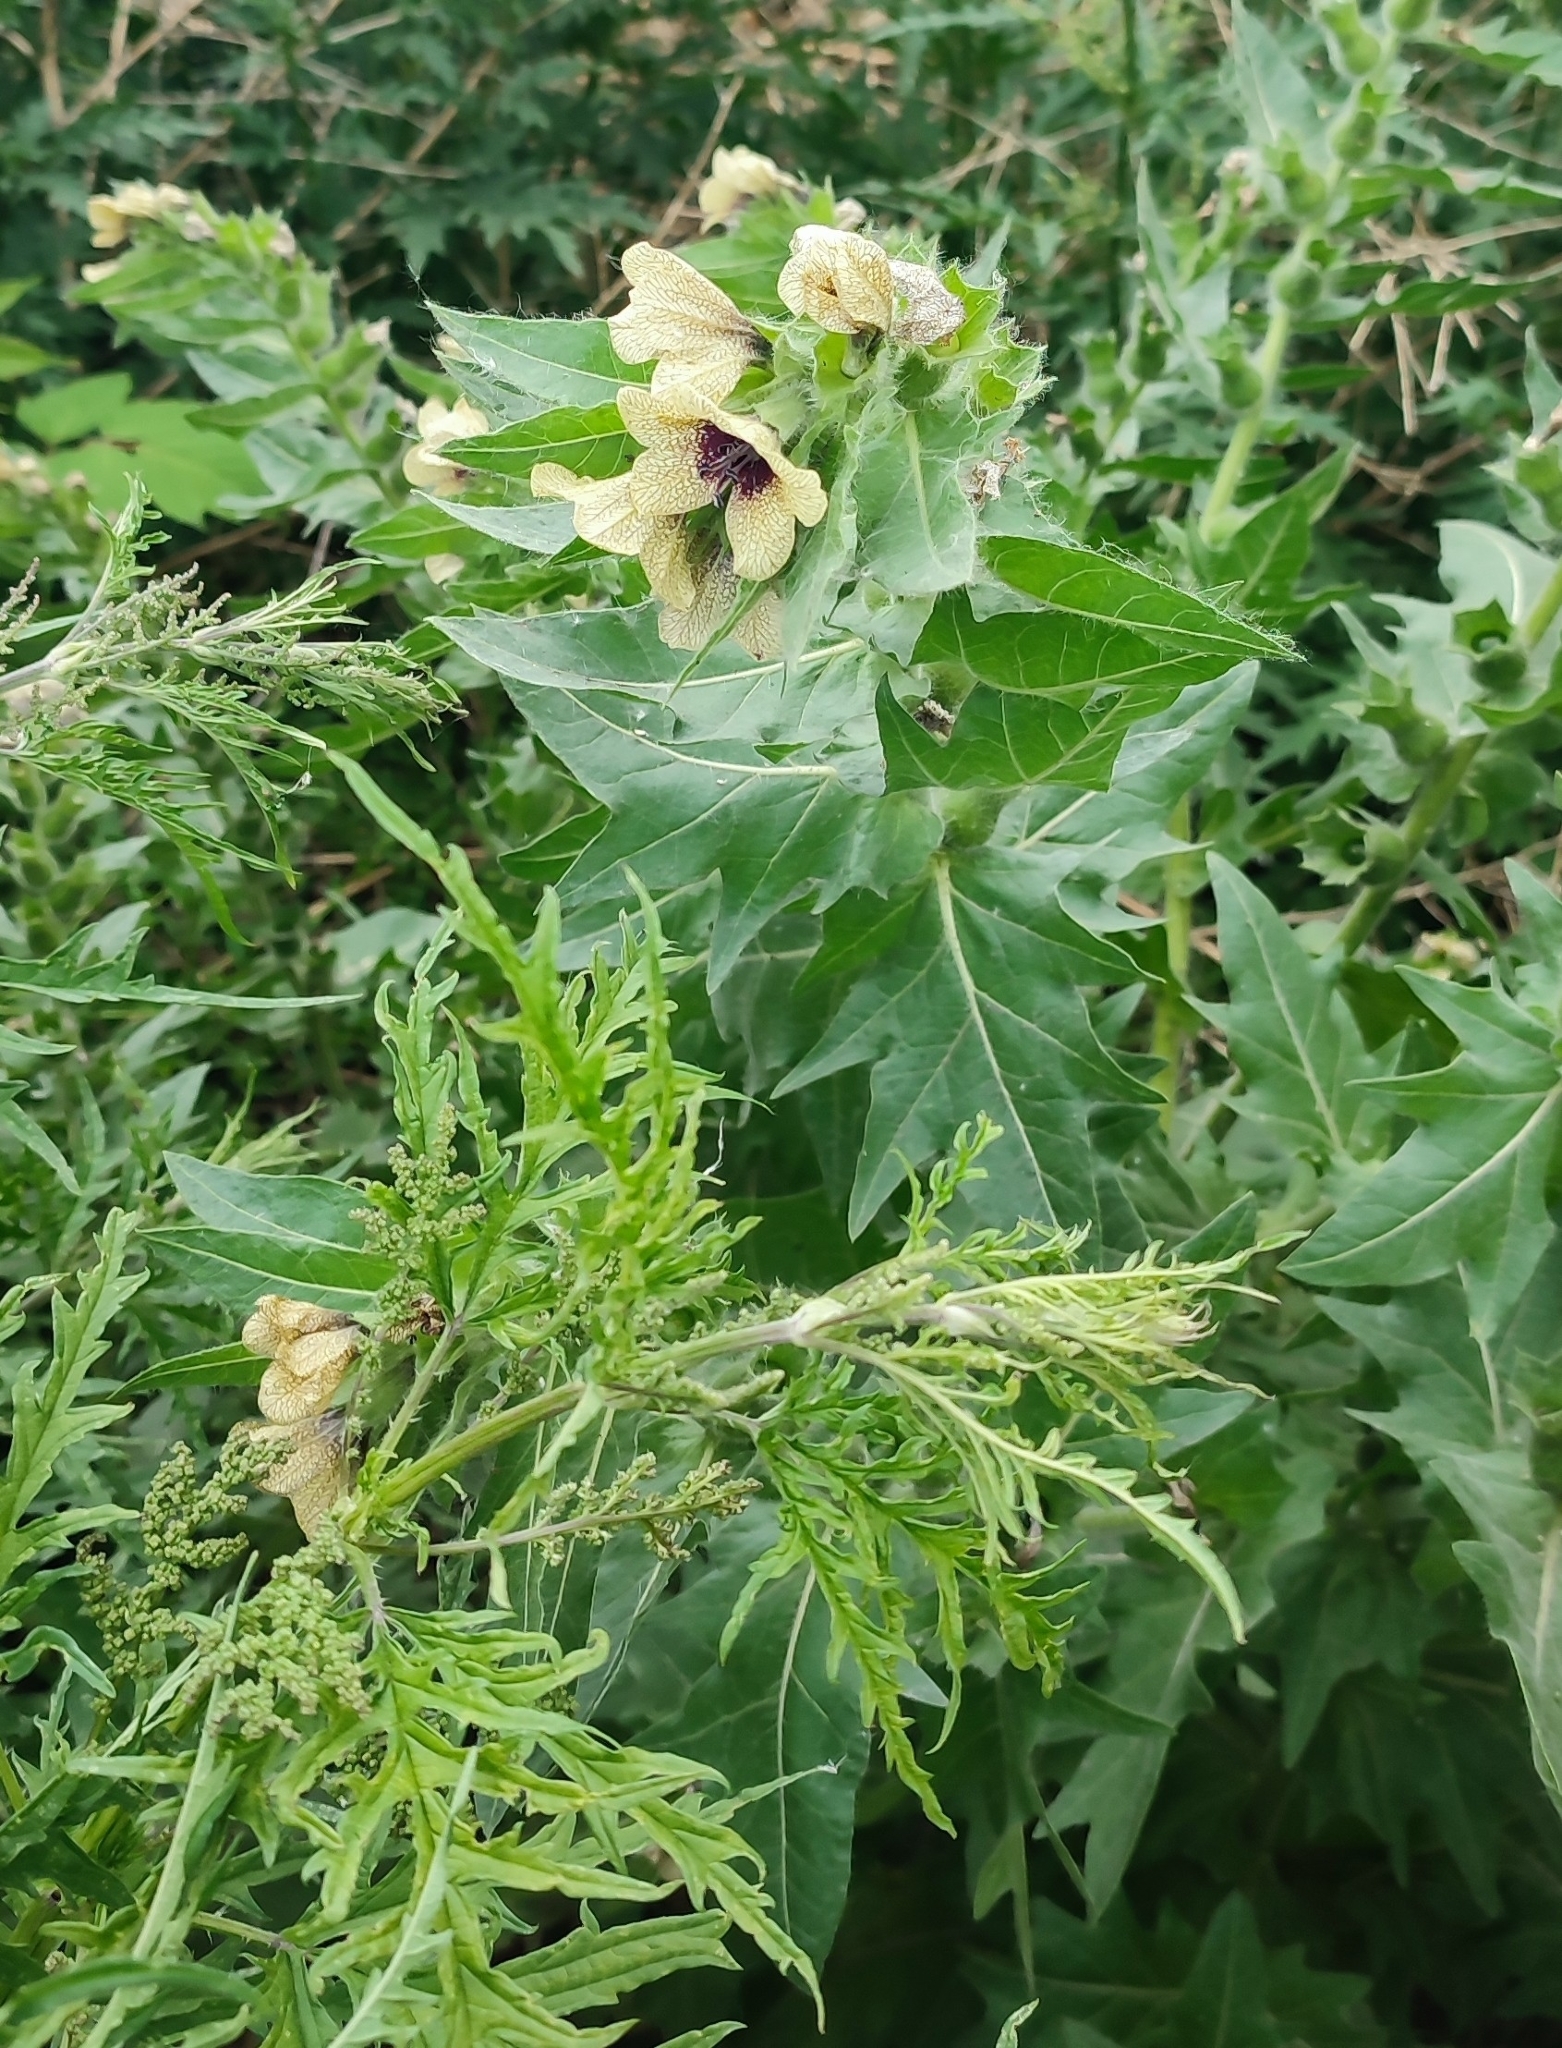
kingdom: Plantae
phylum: Tracheophyta
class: Magnoliopsida
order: Solanales
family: Solanaceae
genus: Hyoscyamus
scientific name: Hyoscyamus niger
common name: Henbane
